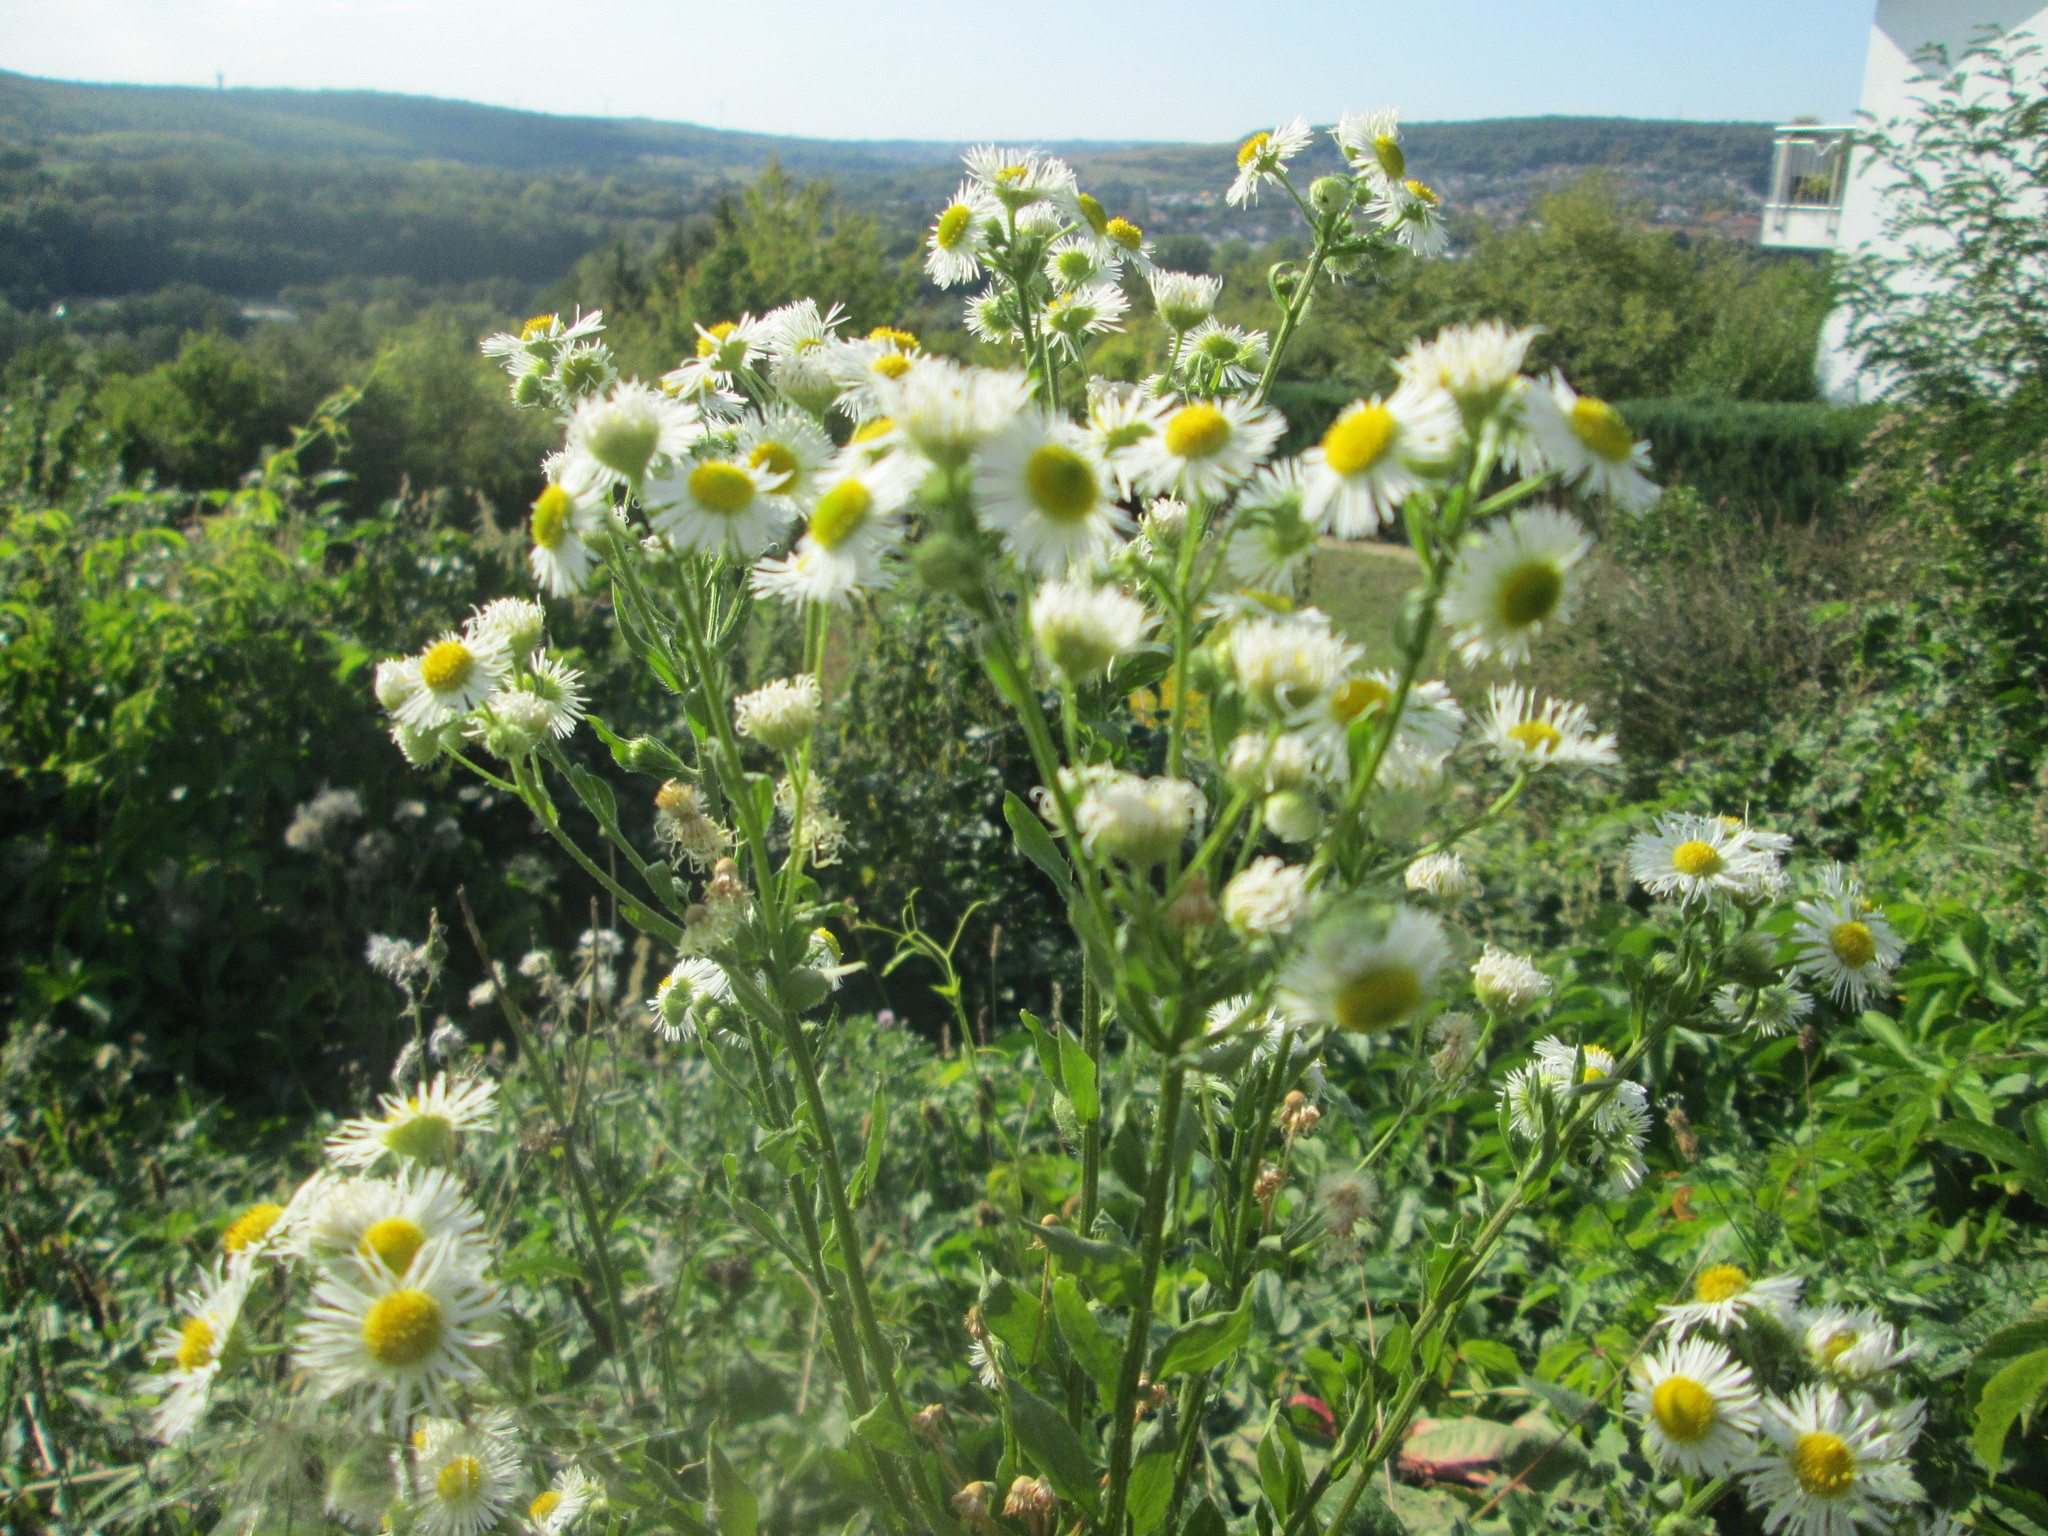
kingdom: Plantae
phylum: Tracheophyta
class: Magnoliopsida
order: Asterales
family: Asteraceae
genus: Erigeron
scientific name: Erigeron annuus
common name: Tall fleabane
